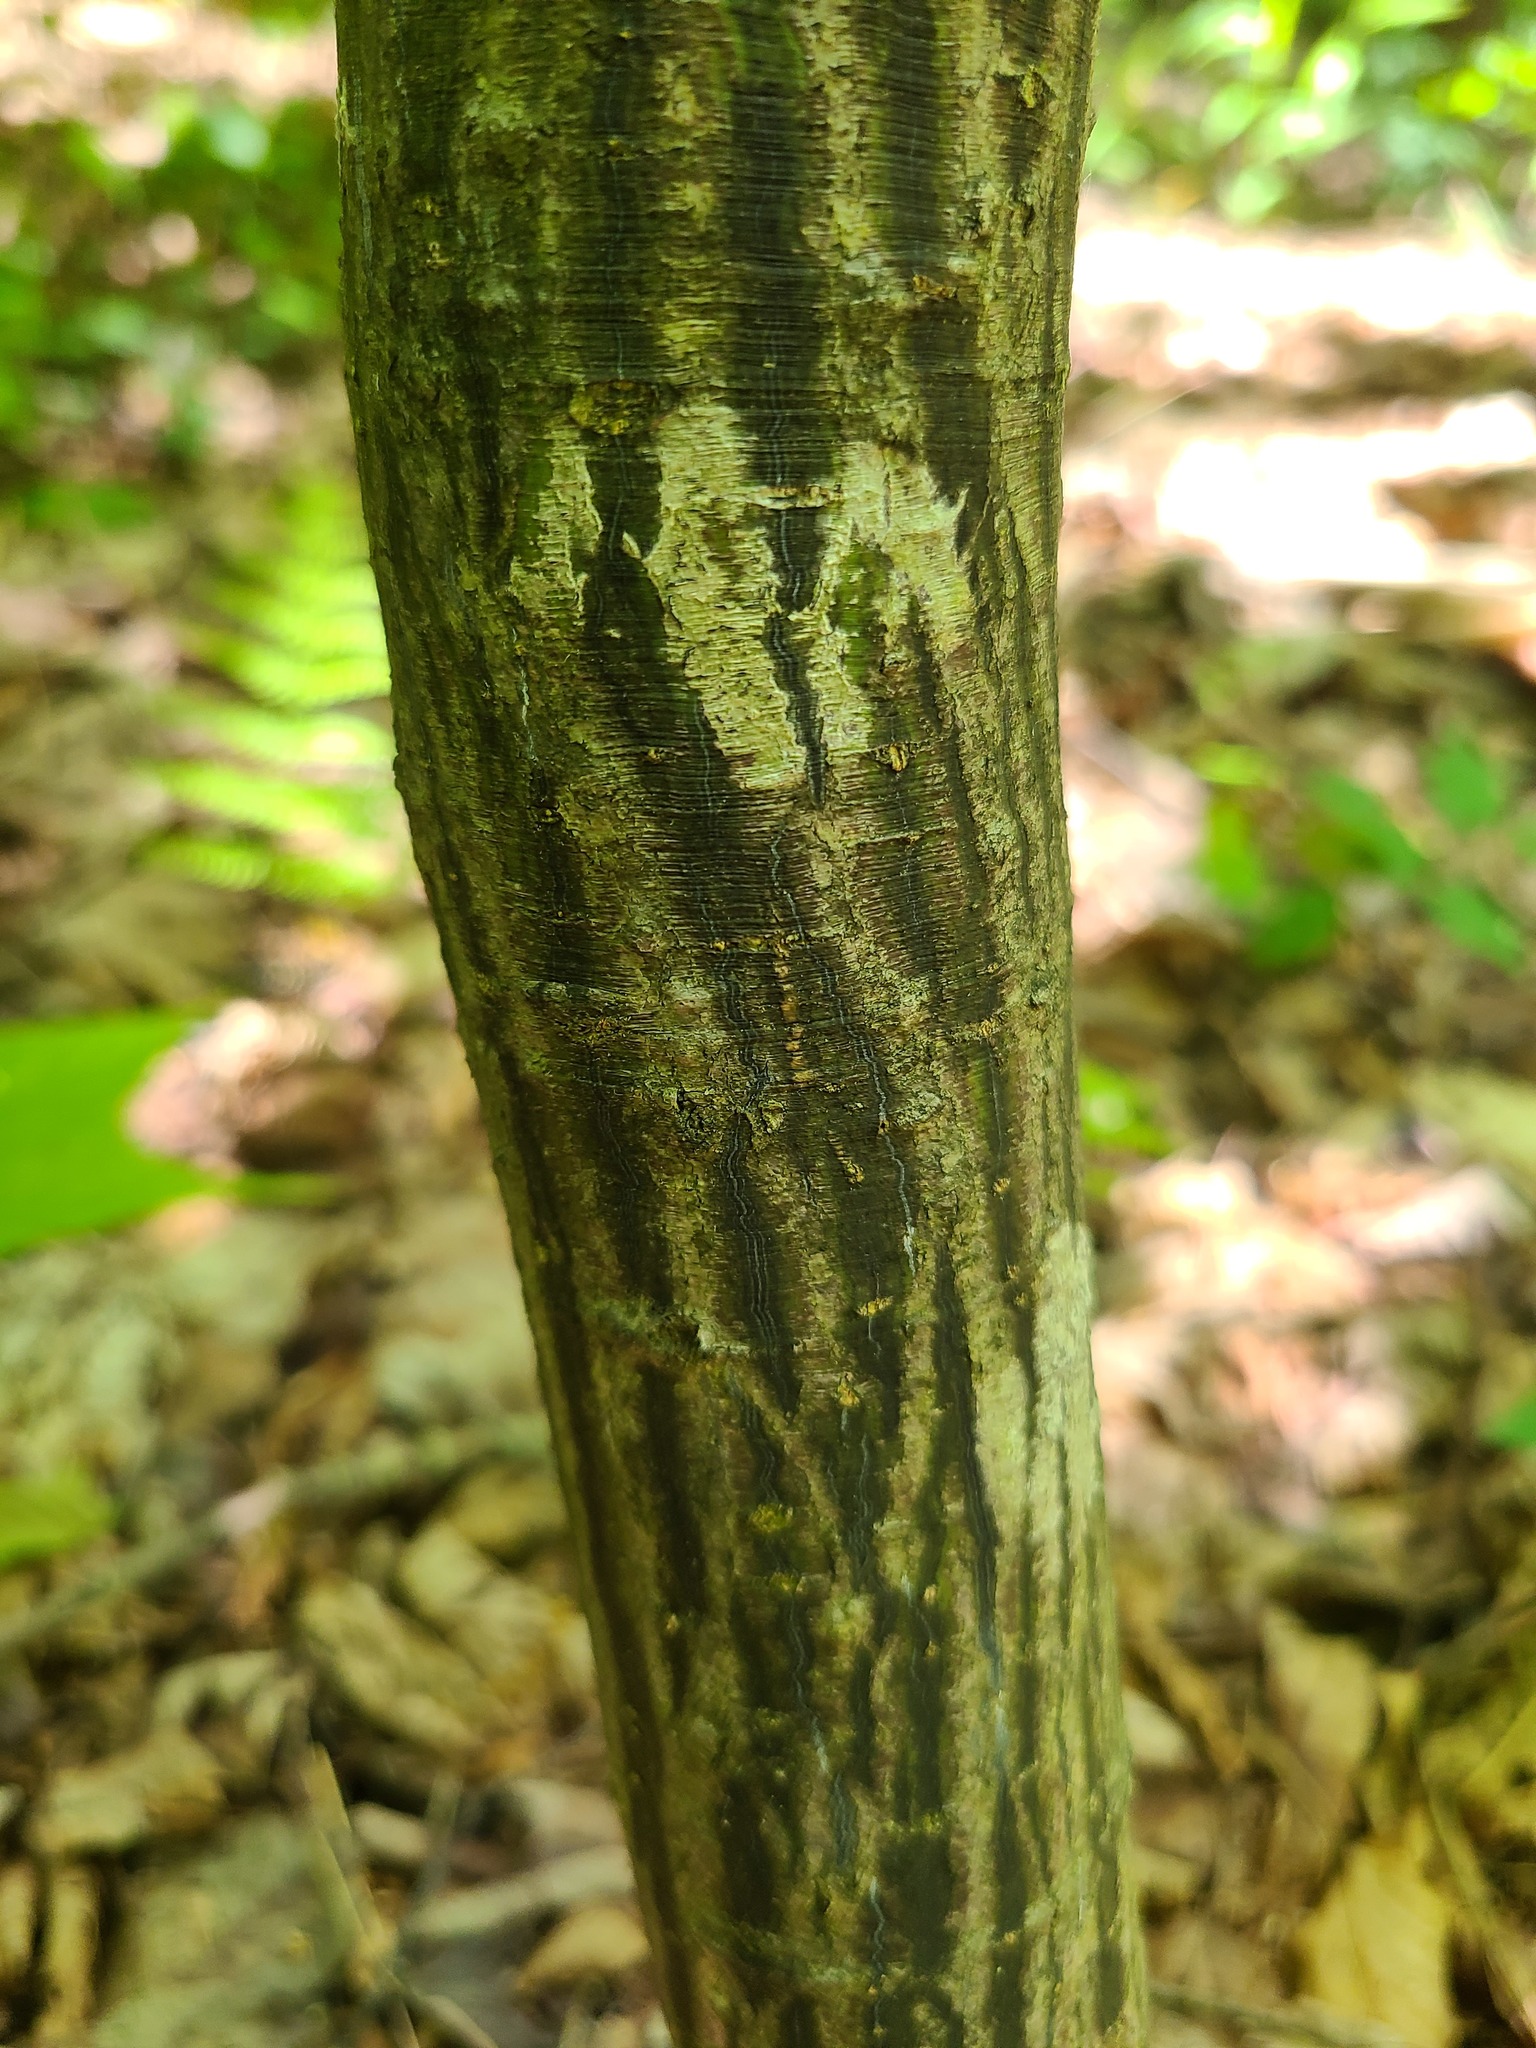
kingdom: Plantae
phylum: Tracheophyta
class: Magnoliopsida
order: Sapindales
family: Sapindaceae
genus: Acer
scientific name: Acer pensylvanicum
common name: Moosewood
